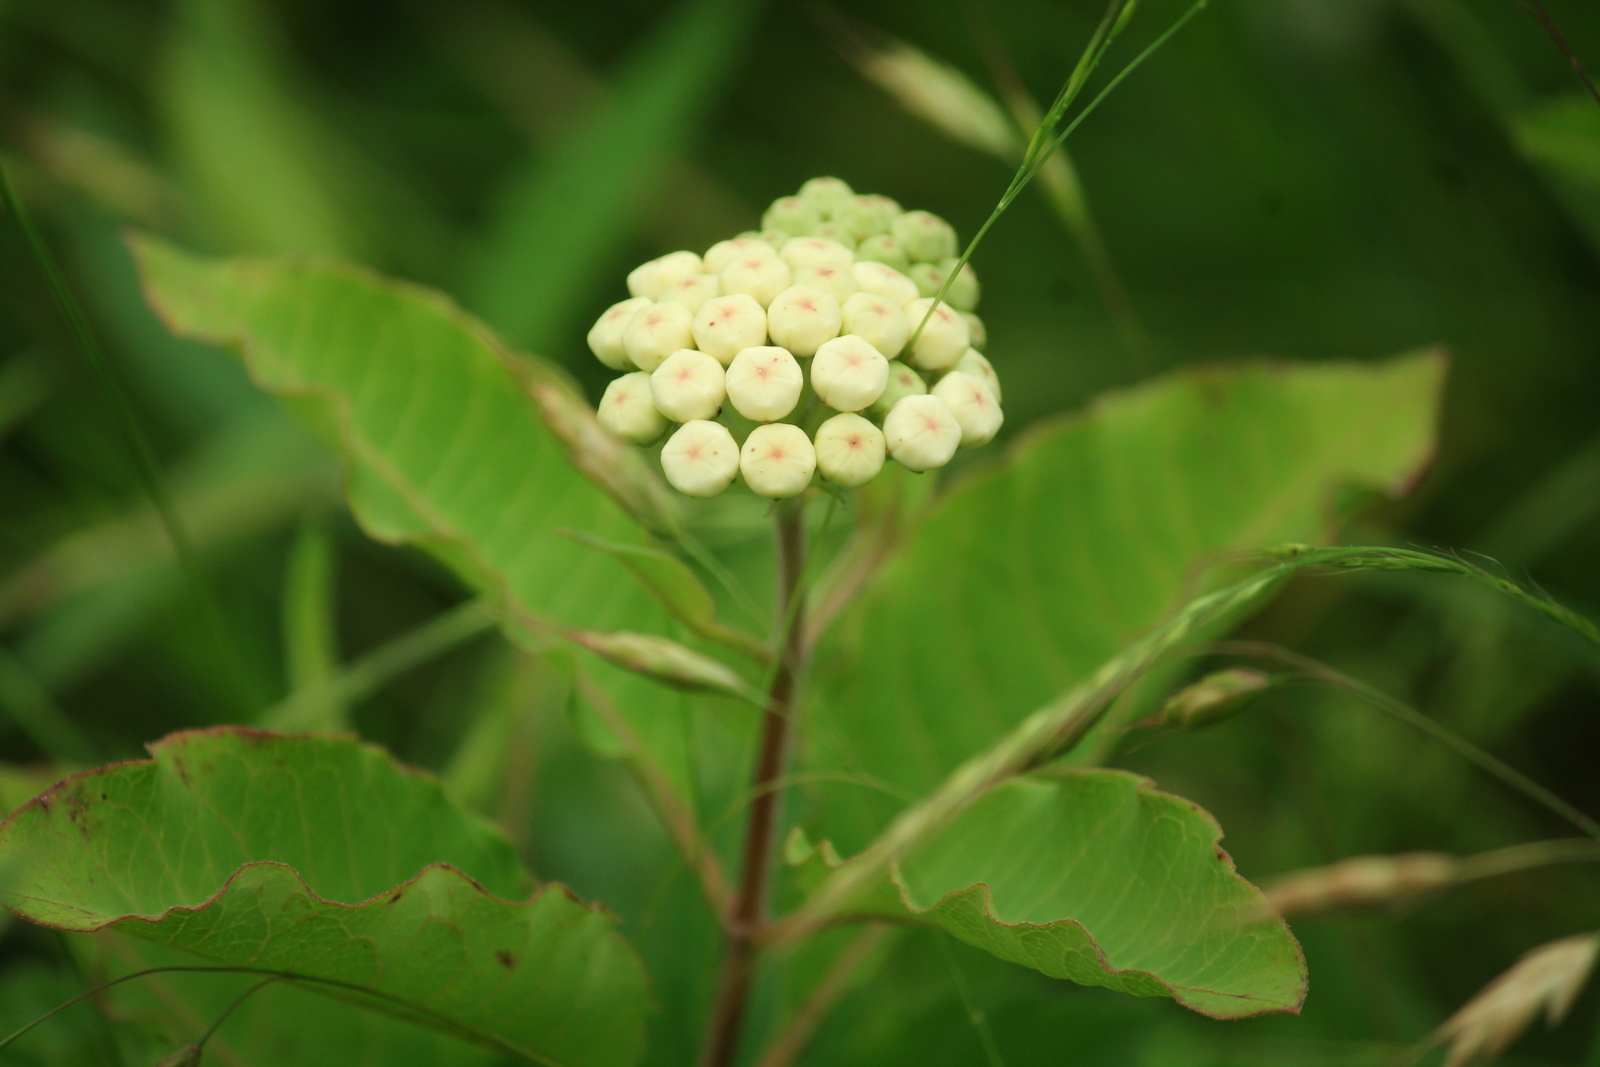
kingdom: Plantae
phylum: Tracheophyta
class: Magnoliopsida
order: Gentianales
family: Apocynaceae
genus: Asclepias
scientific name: Asclepias variegata
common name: Variegated milkweed
